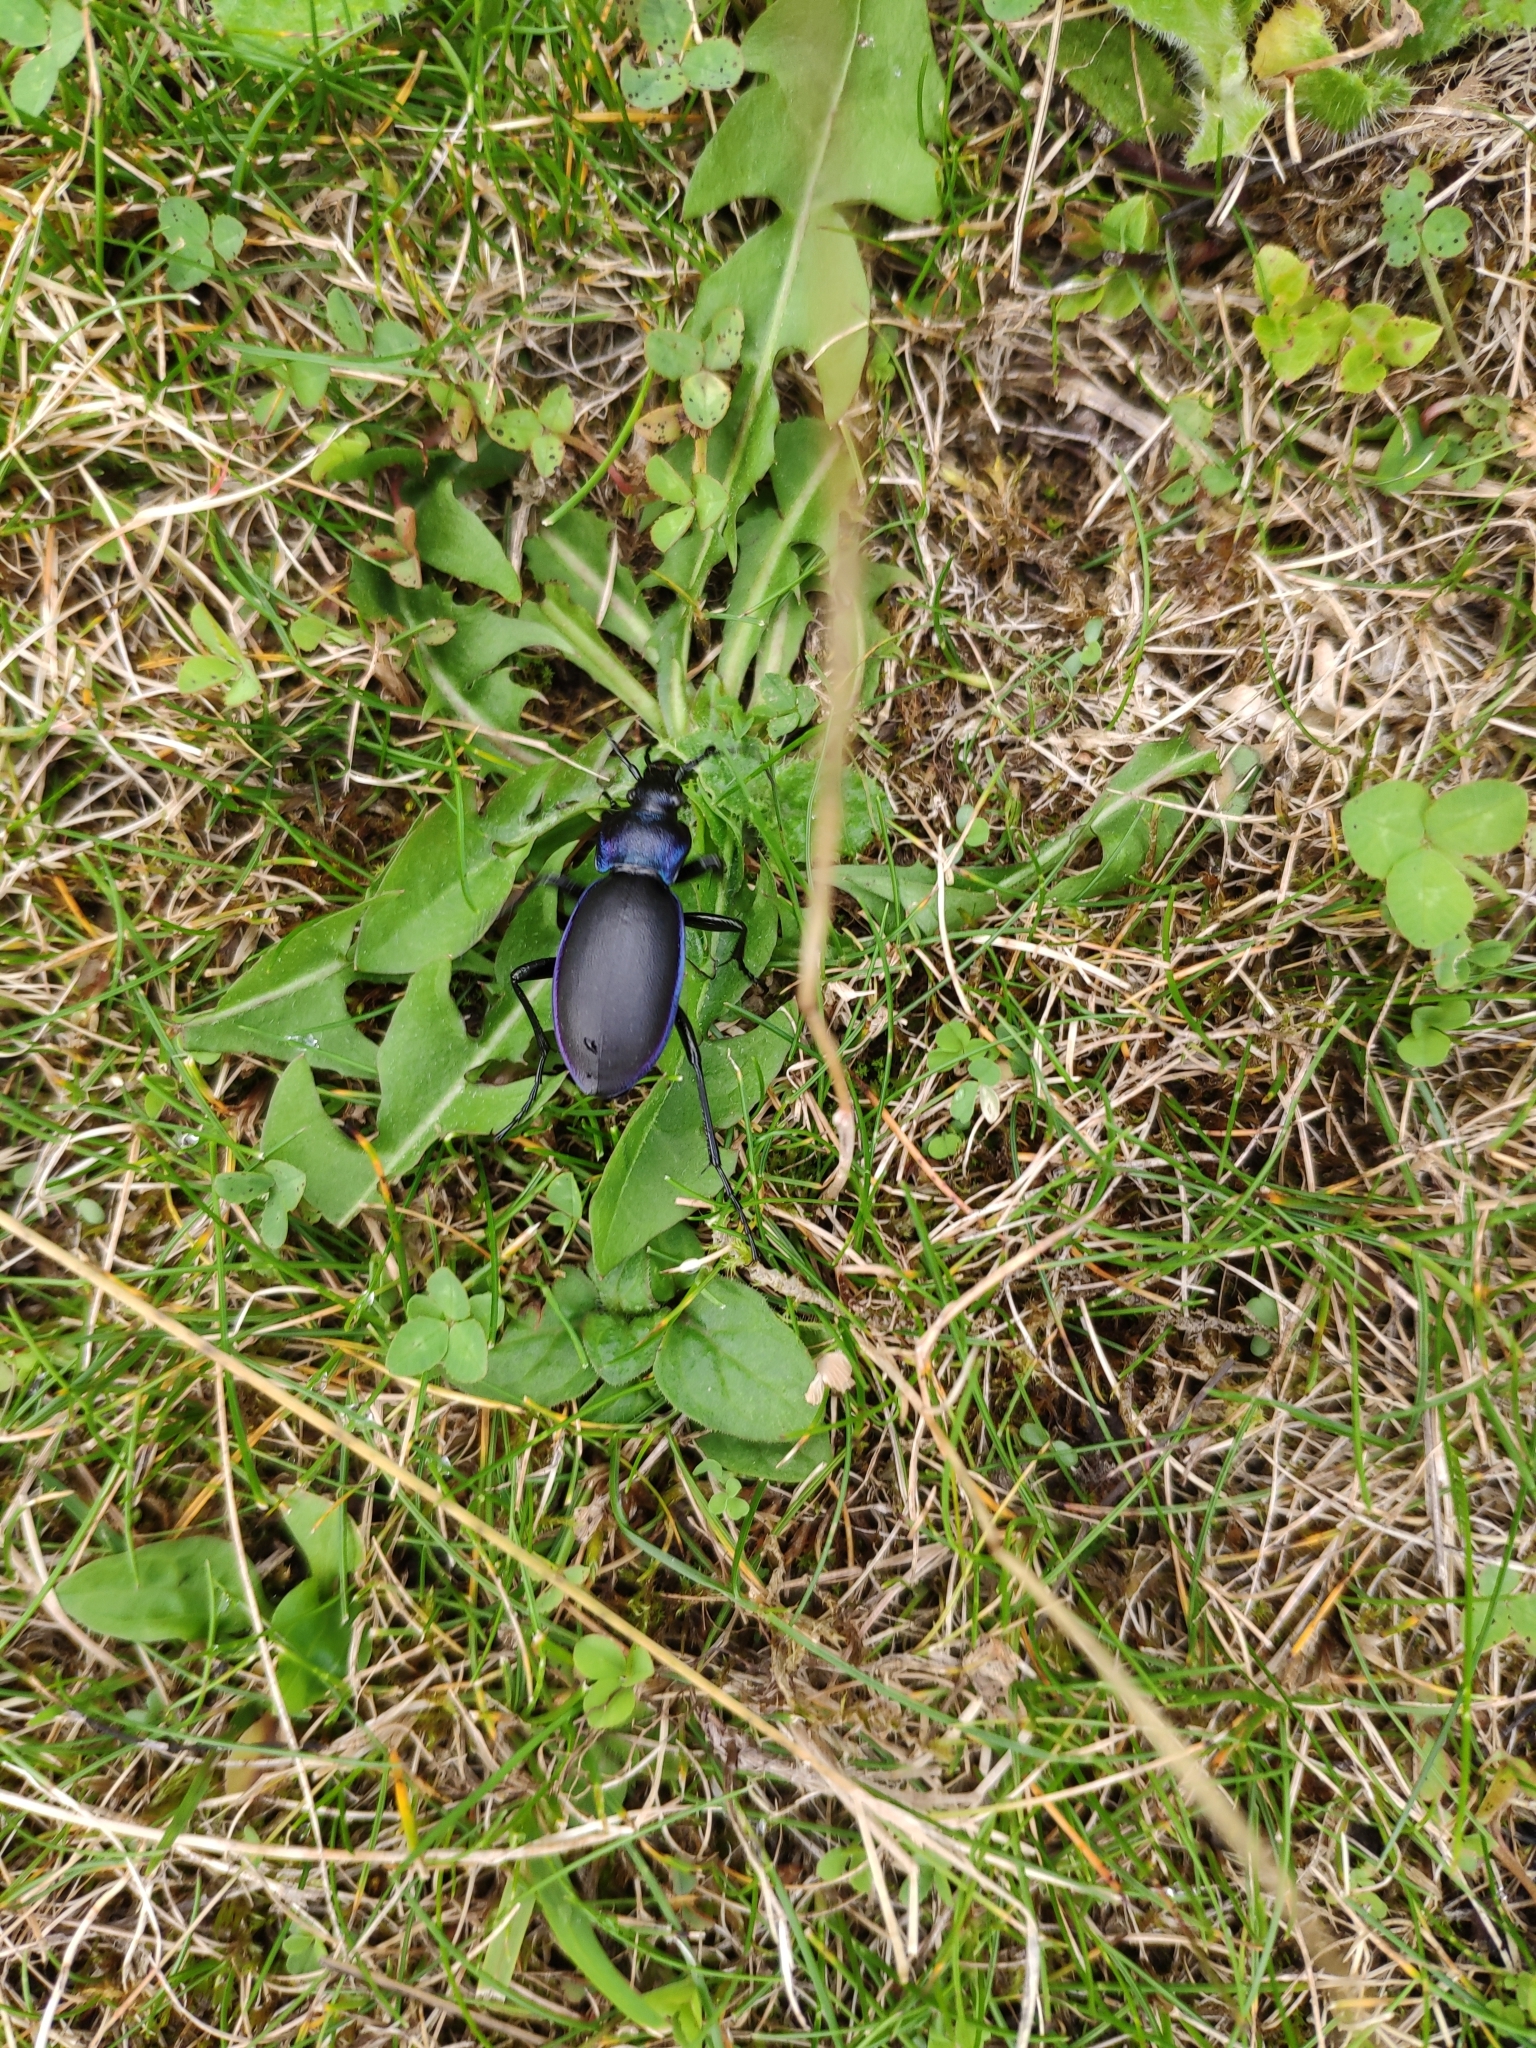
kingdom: Animalia
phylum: Arthropoda
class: Insecta
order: Coleoptera
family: Carabidae
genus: Carabus
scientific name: Carabus violaceus
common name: Violet ground beetle
